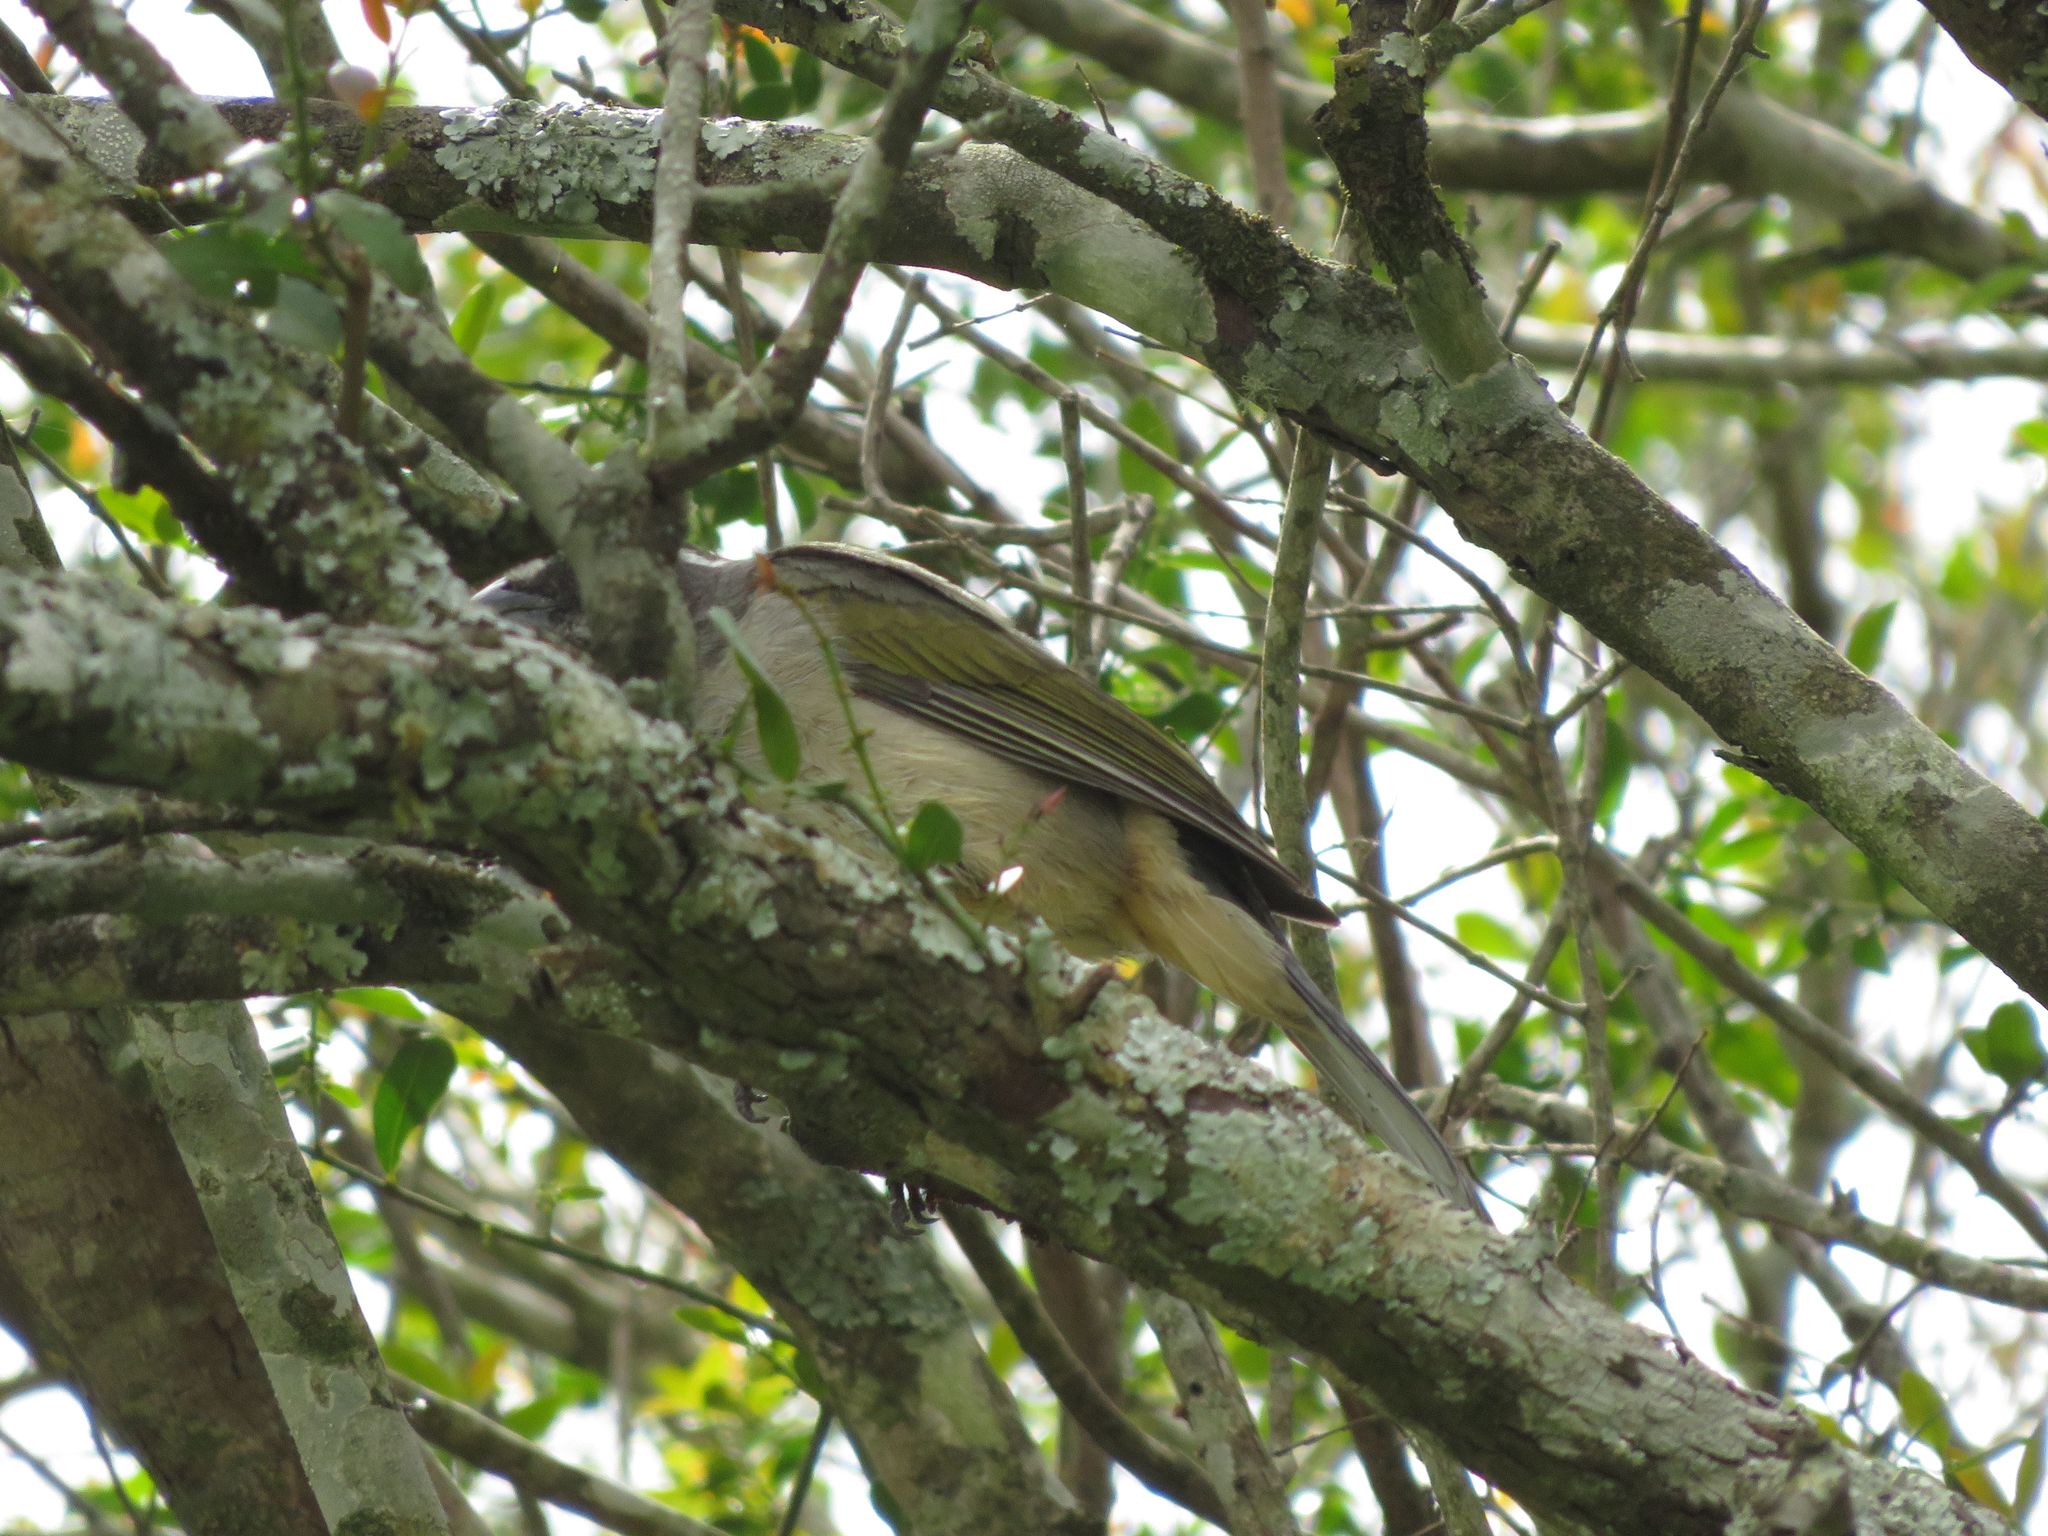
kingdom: Animalia
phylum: Chordata
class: Aves
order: Passeriformes
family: Thraupidae
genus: Saltator
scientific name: Saltator similis
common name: Green-winged saltator
